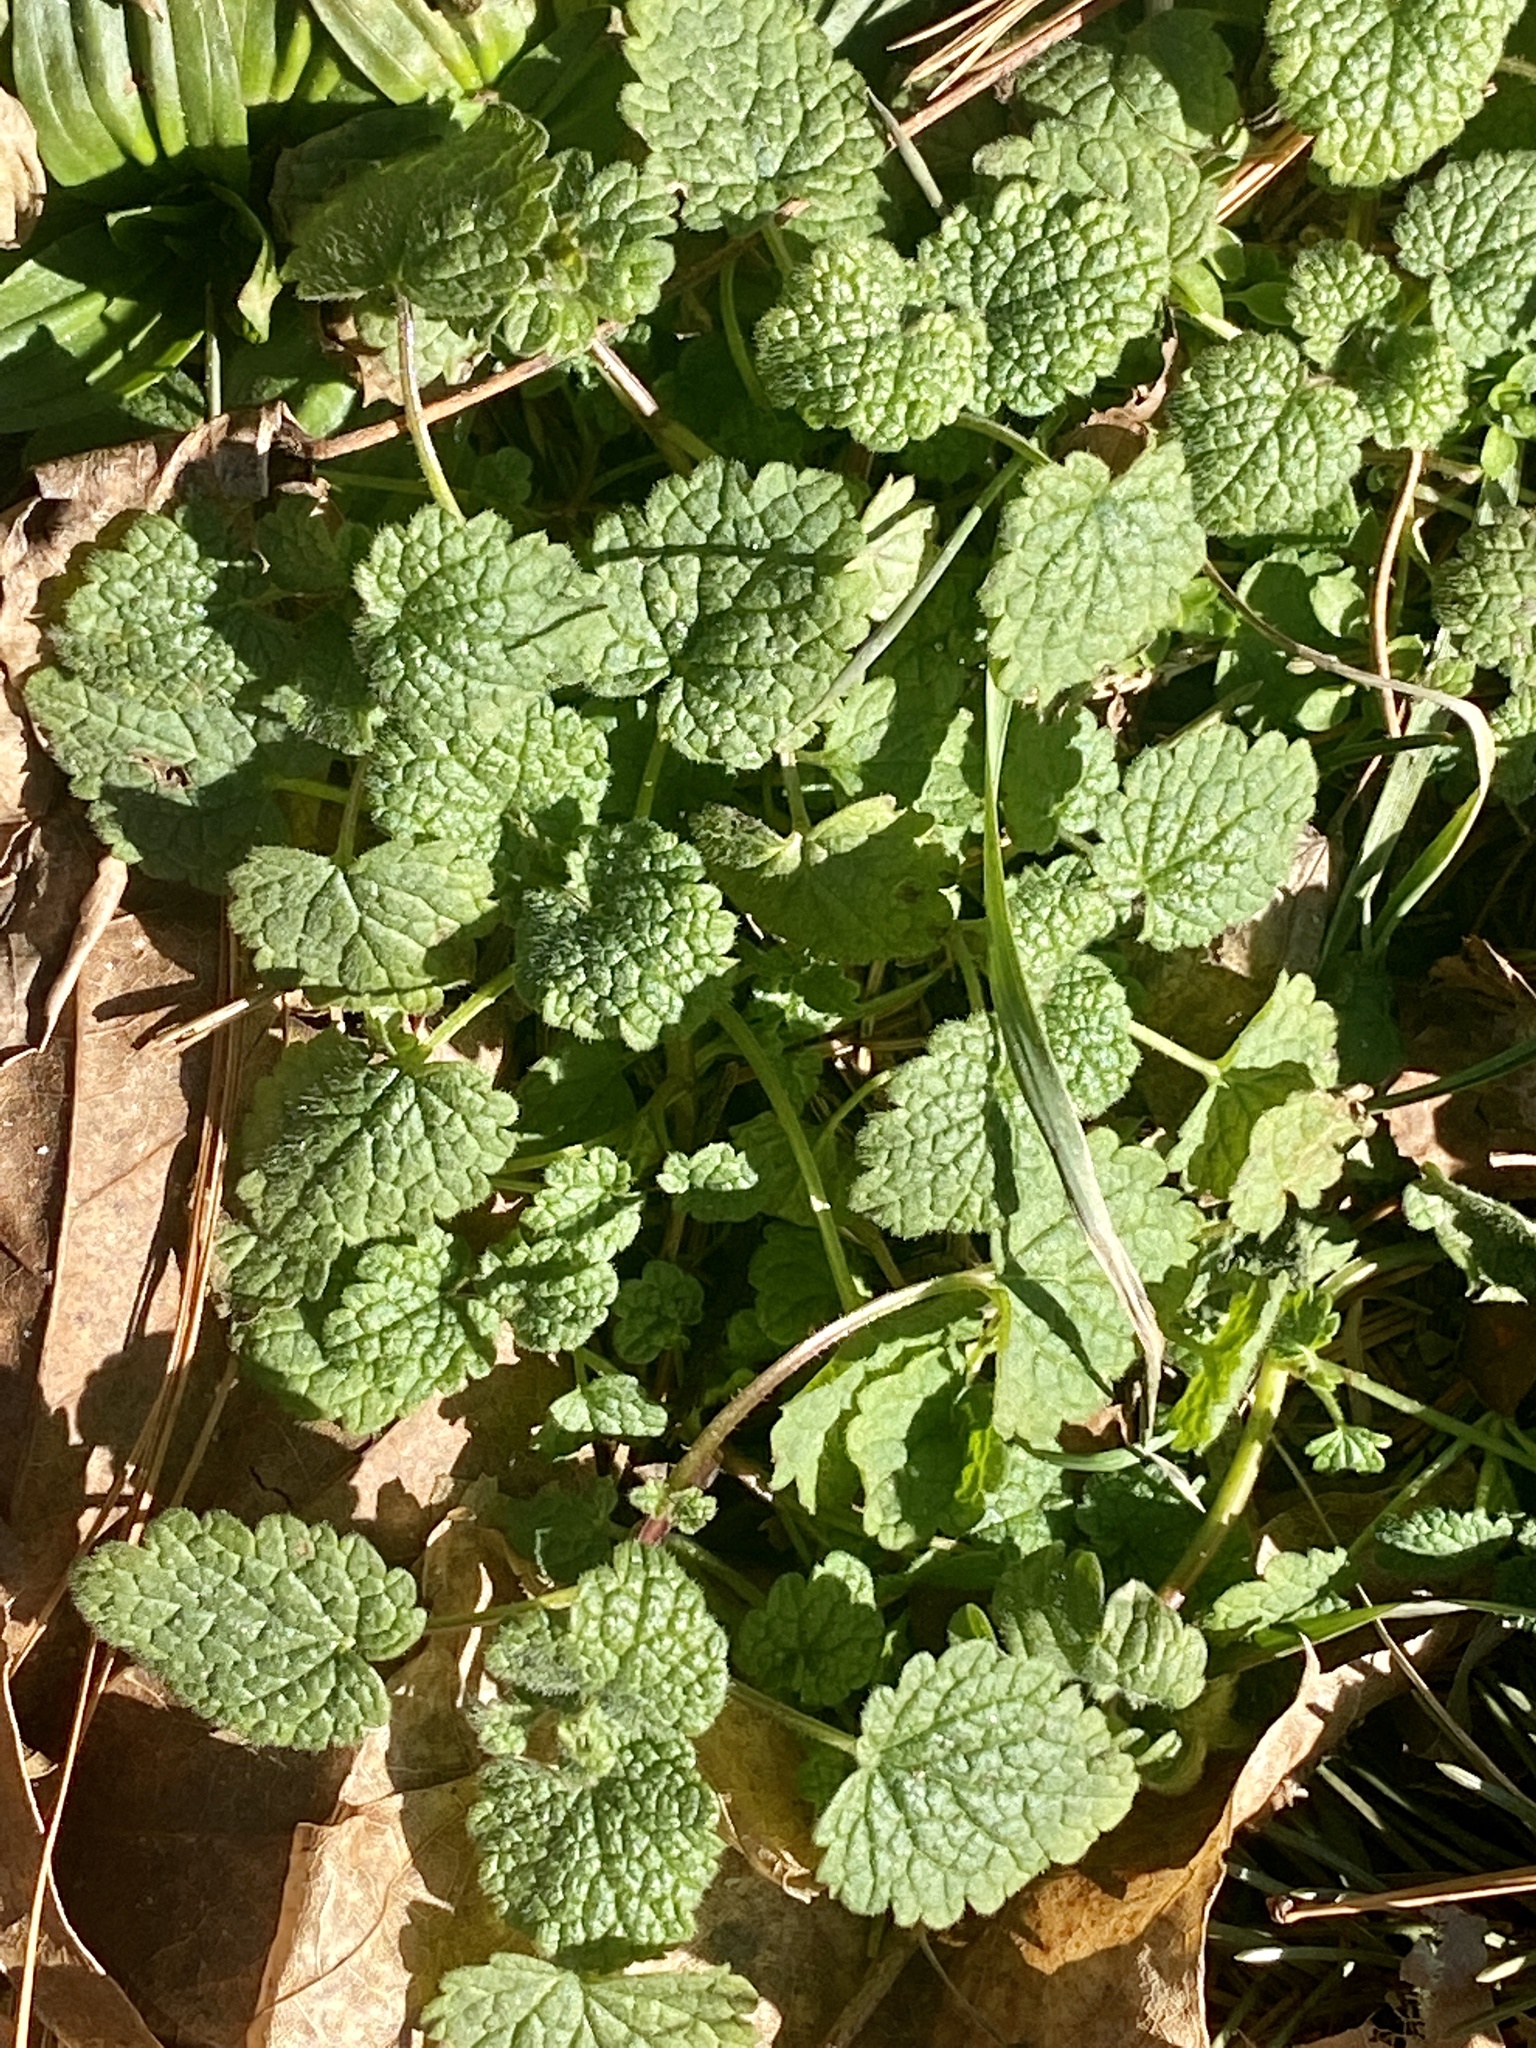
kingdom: Plantae
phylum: Tracheophyta
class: Magnoliopsida
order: Lamiales
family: Lamiaceae
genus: Lamium
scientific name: Lamium purpureum
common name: Red dead-nettle
